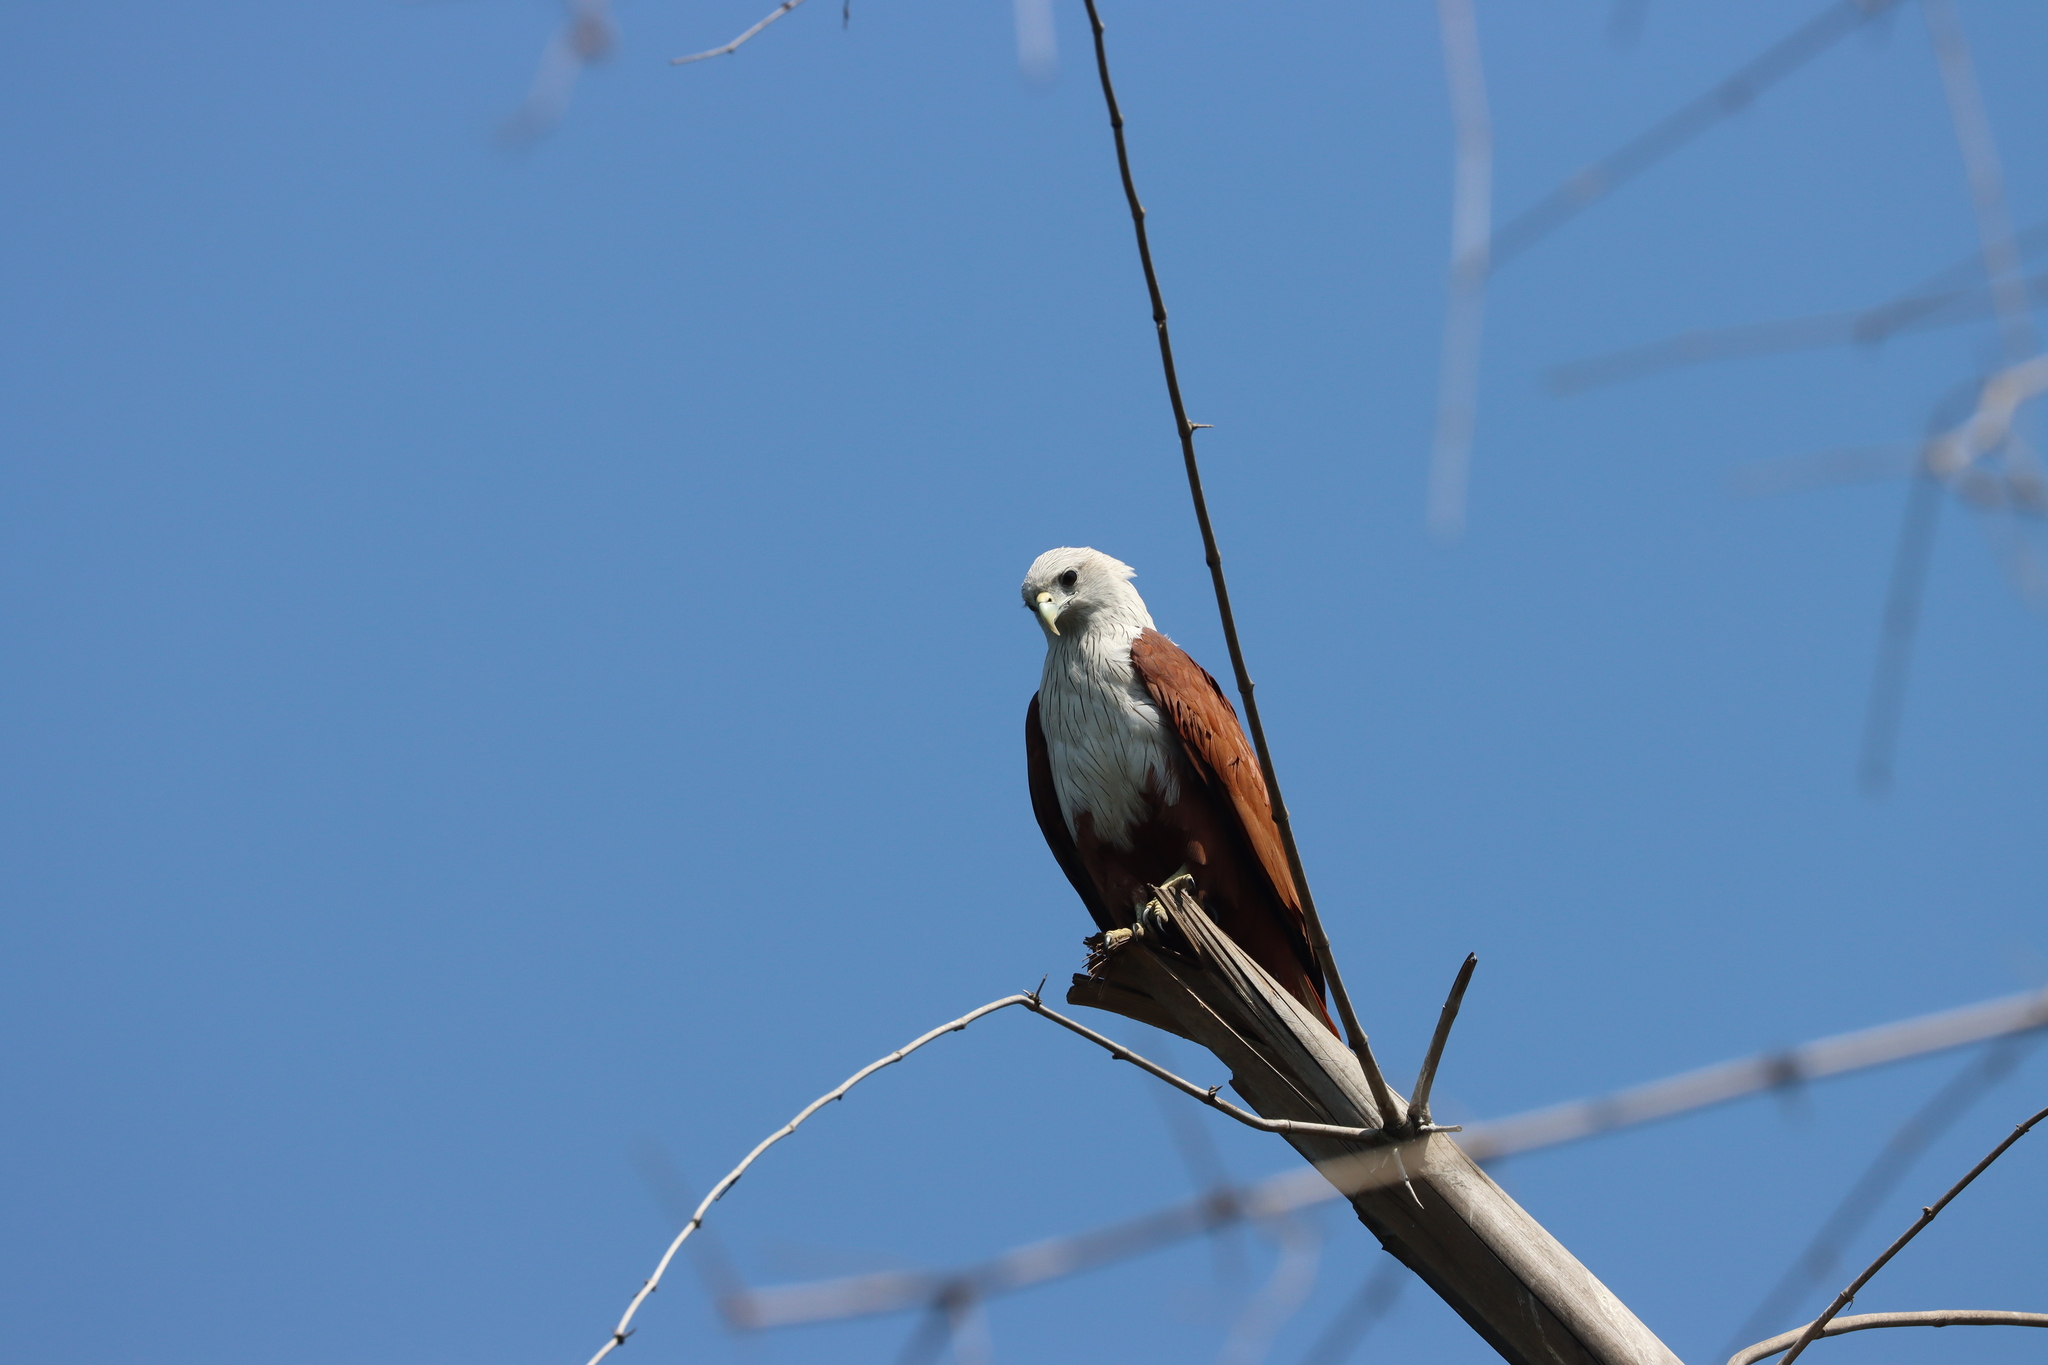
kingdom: Animalia
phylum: Chordata
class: Aves
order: Accipitriformes
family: Accipitridae
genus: Haliastur
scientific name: Haliastur indus
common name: Brahminy kite
